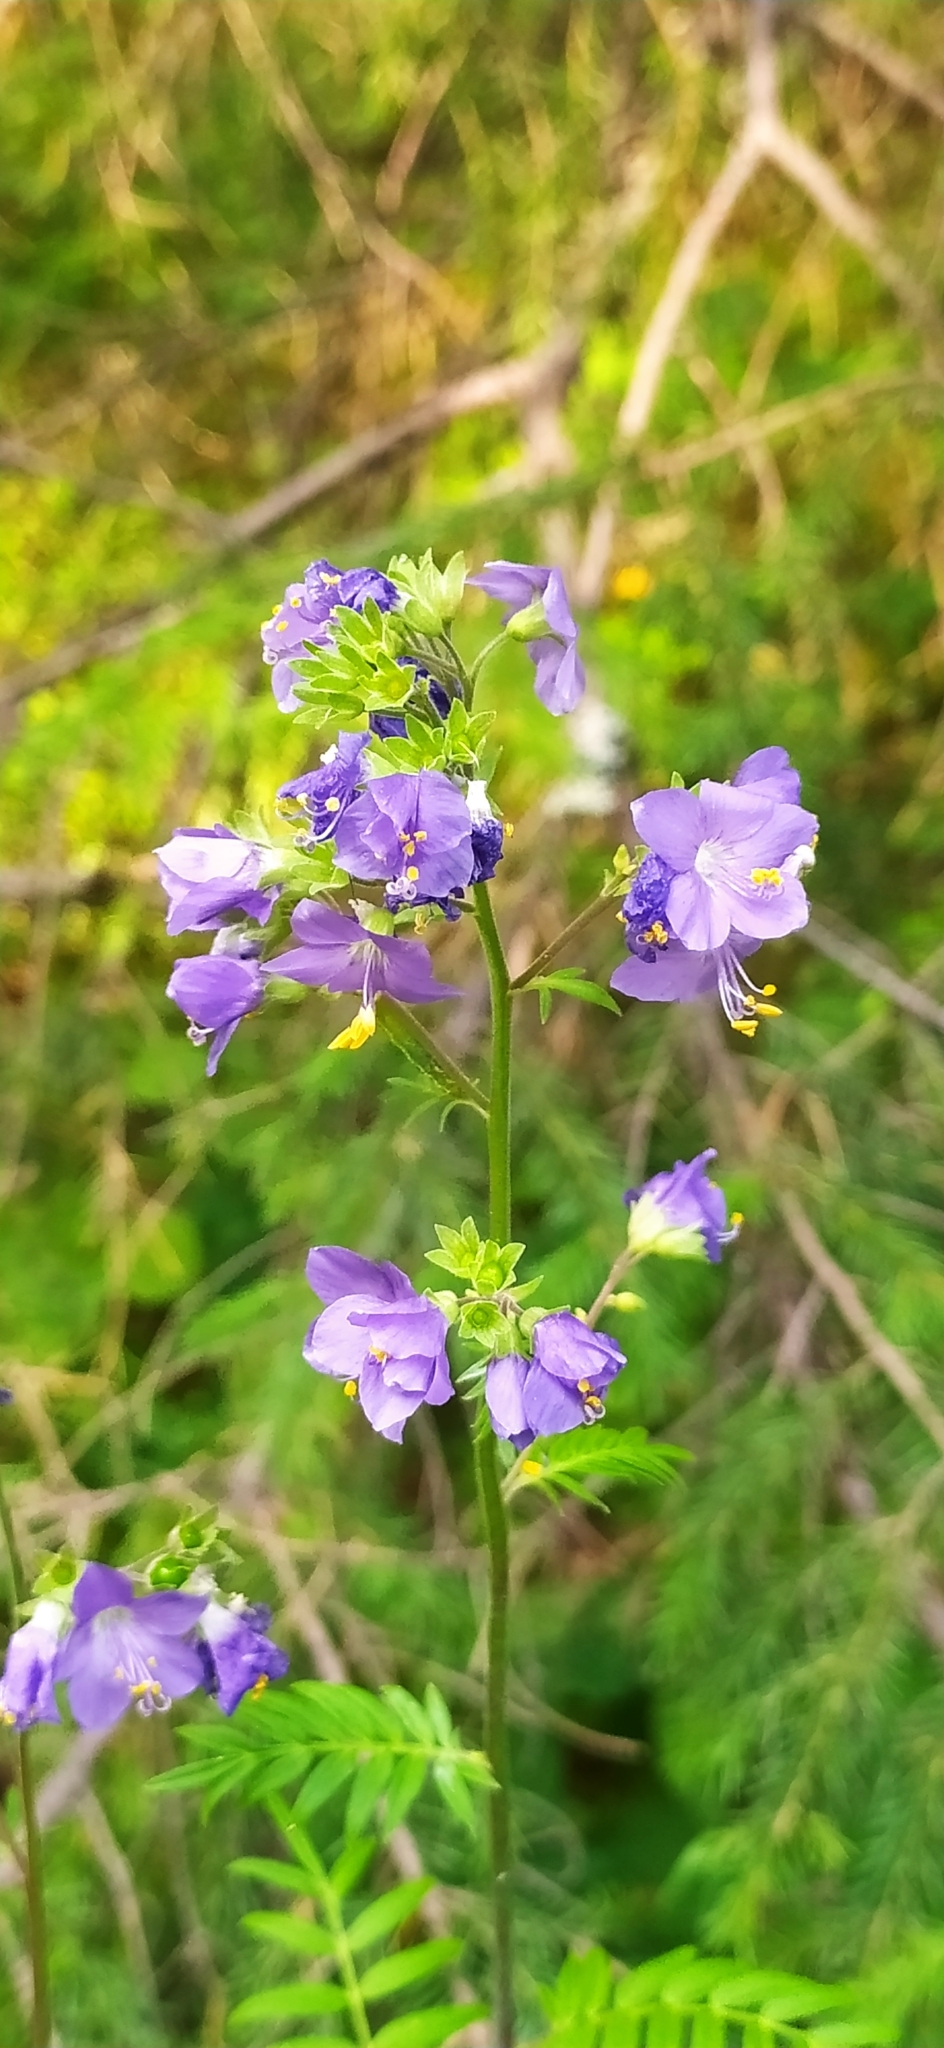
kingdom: Plantae
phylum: Tracheophyta
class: Magnoliopsida
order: Ericales
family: Polemoniaceae
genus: Polemonium
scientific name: Polemonium caeruleum
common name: Jacob's-ladder
